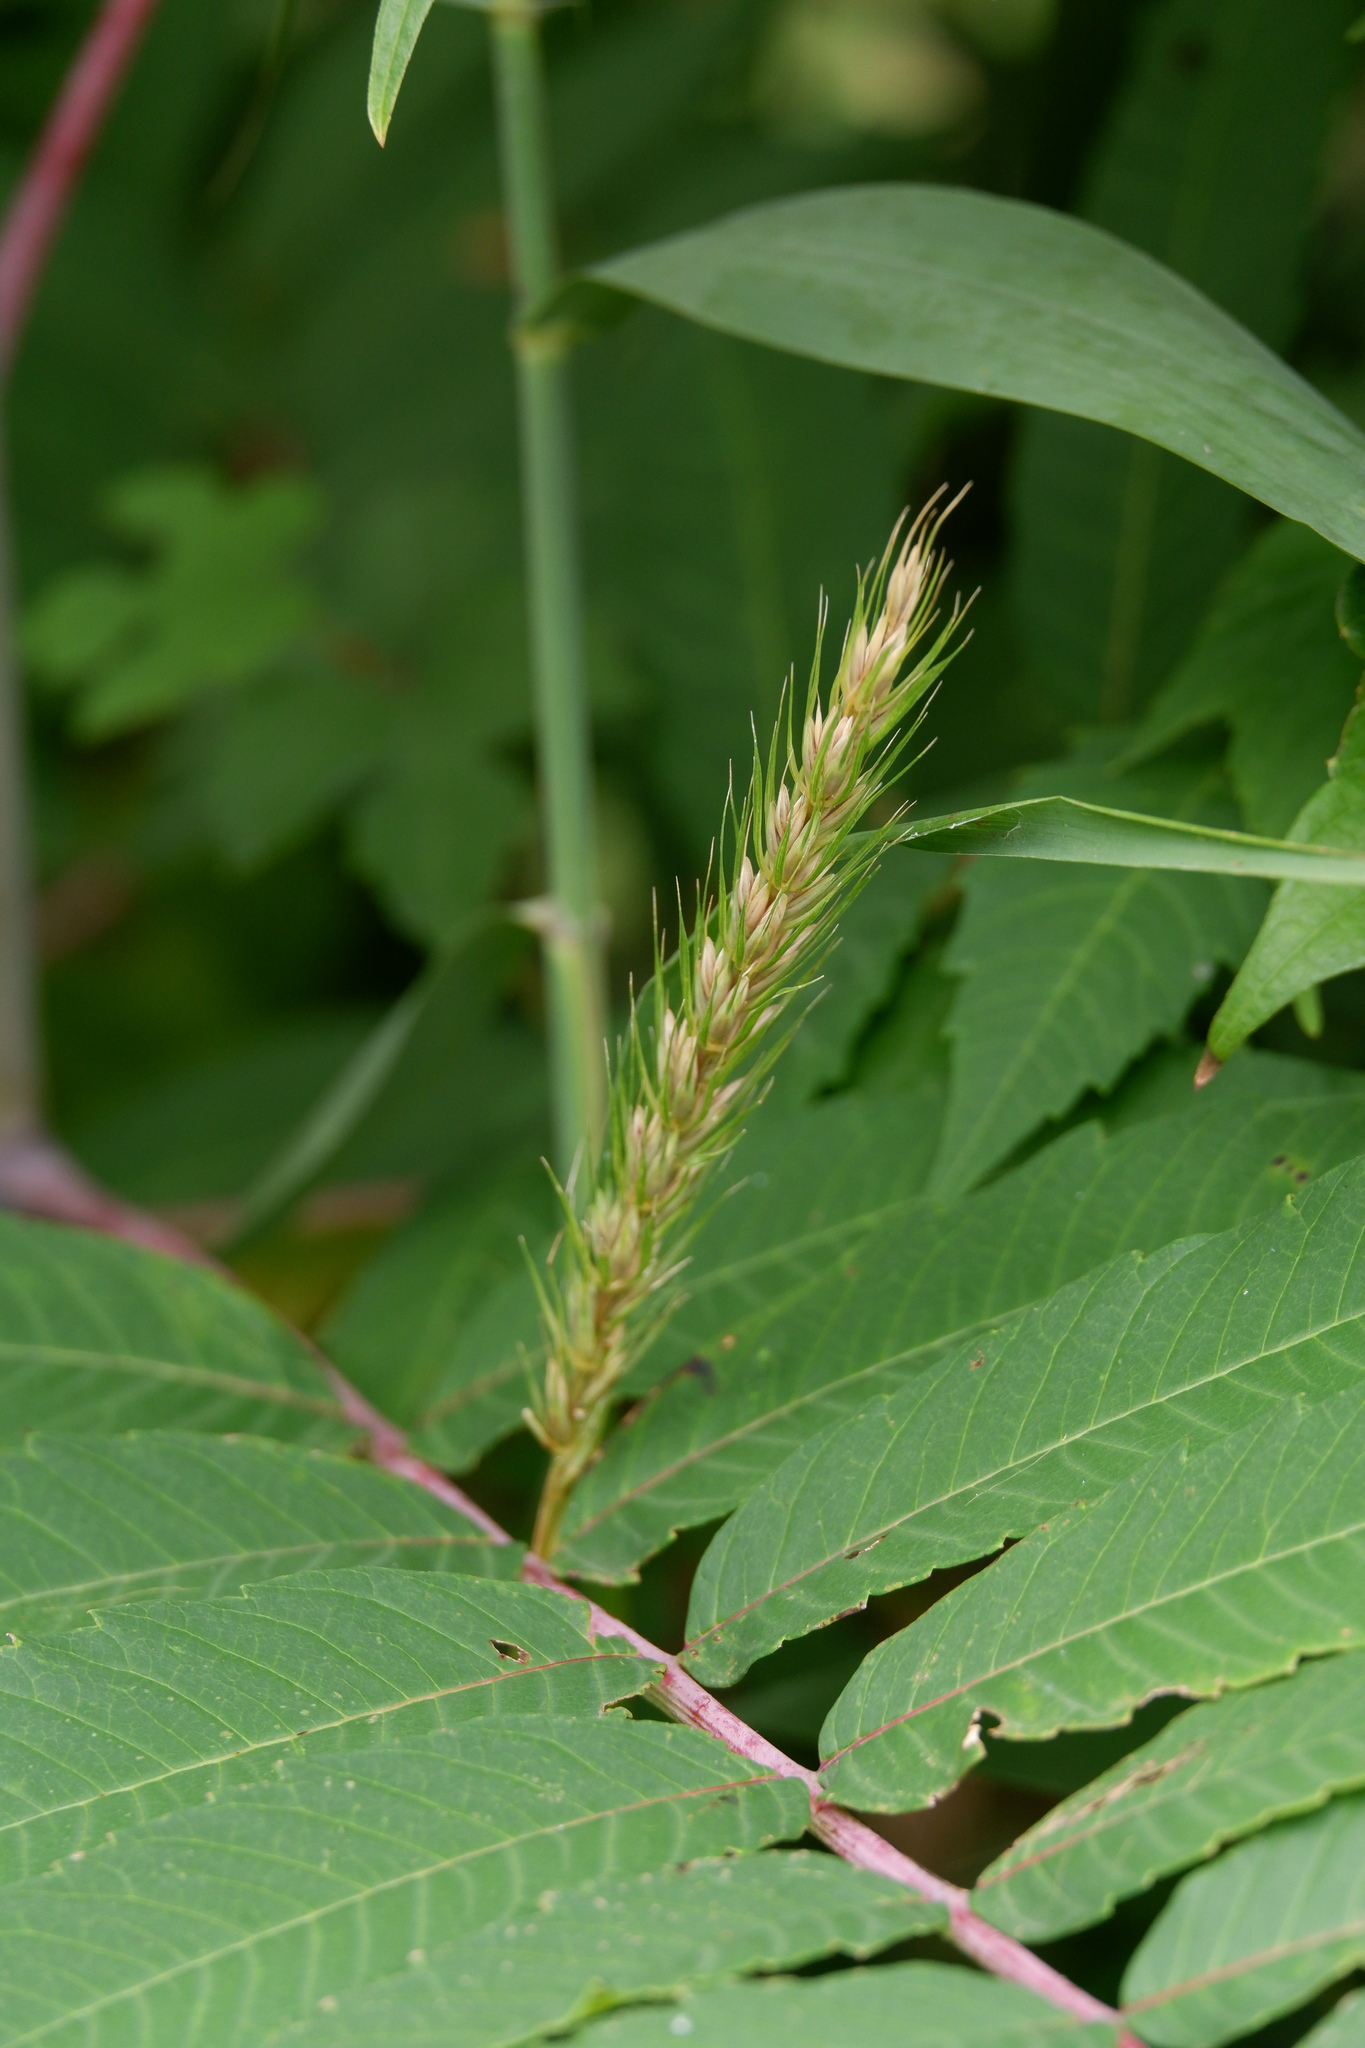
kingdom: Plantae
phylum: Tracheophyta
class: Liliopsida
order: Poales
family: Poaceae
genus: Elymus
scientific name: Elymus virginicus
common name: Common eastern wildrye
